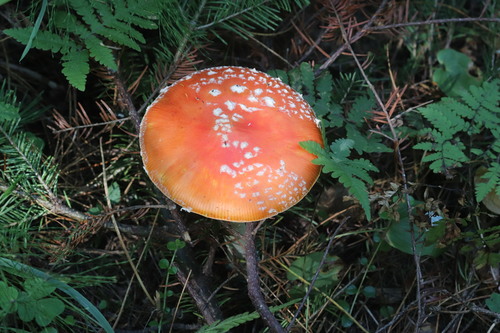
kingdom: Fungi
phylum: Basidiomycota
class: Agaricomycetes
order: Agaricales
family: Amanitaceae
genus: Amanita
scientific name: Amanita muscaria
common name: Fly agaric
